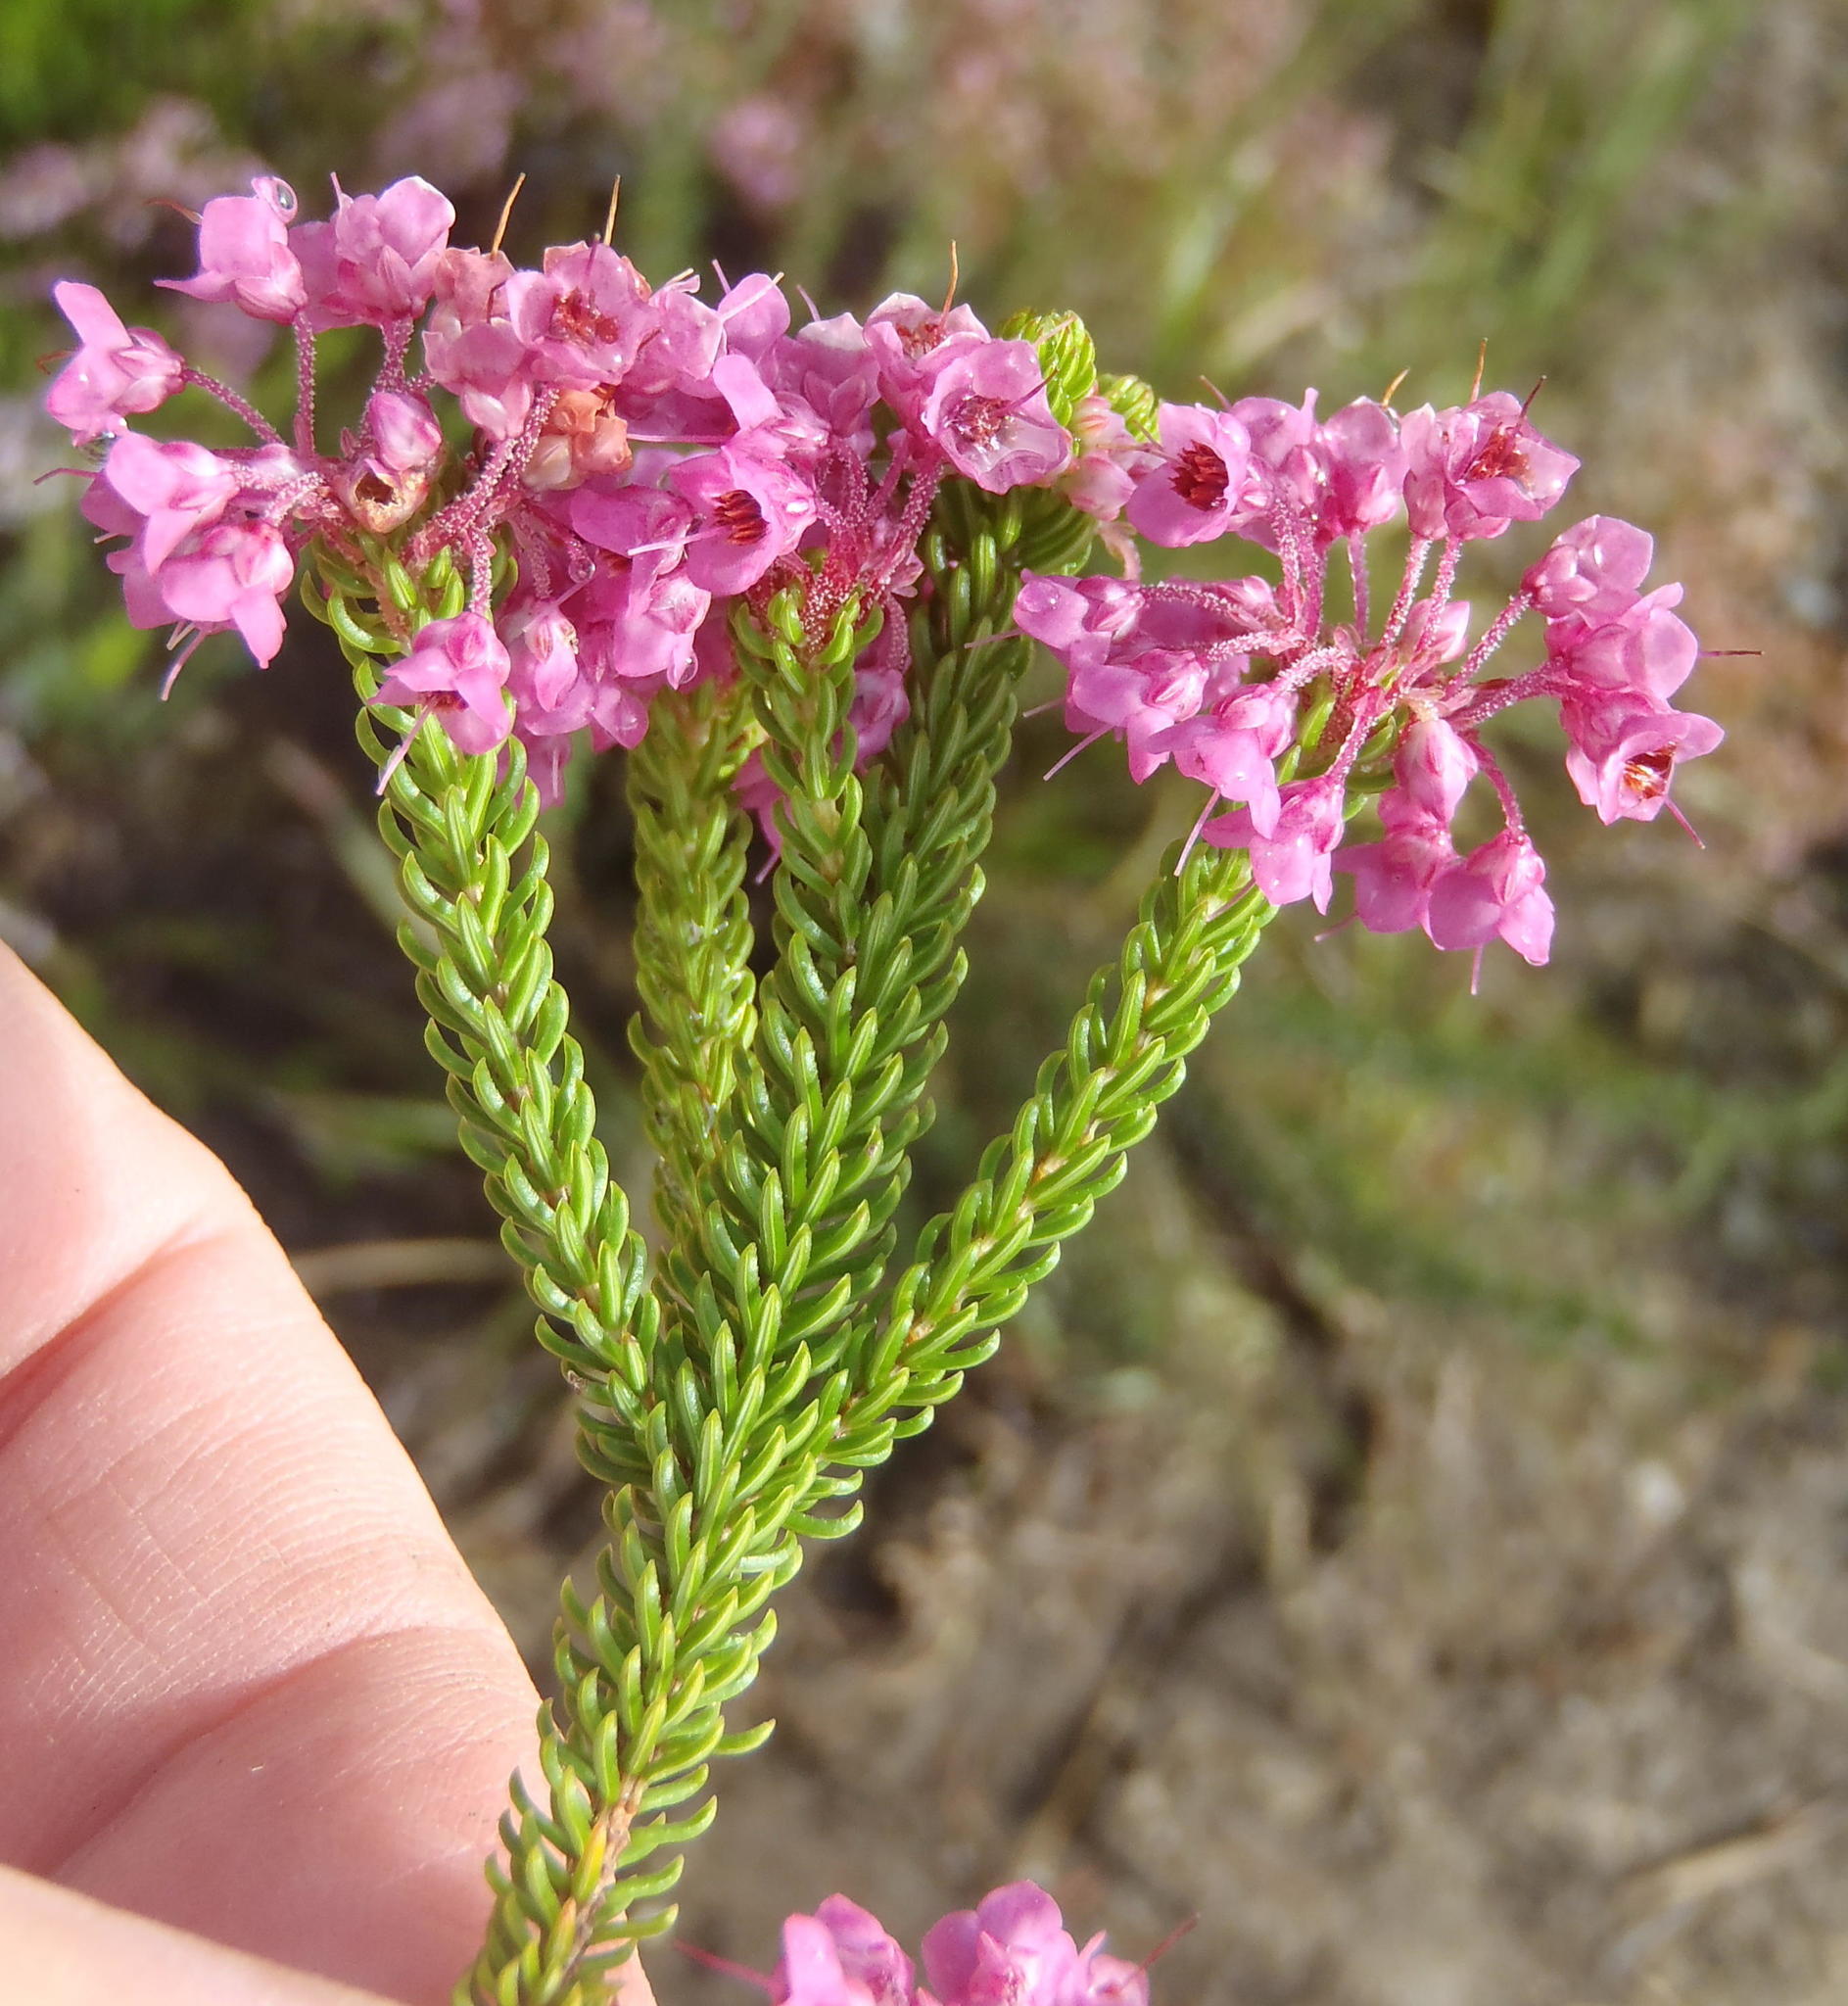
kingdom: Plantae
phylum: Tracheophyta
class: Magnoliopsida
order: Ericales
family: Ericaceae
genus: Erica
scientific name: Erica seriphiifolia
